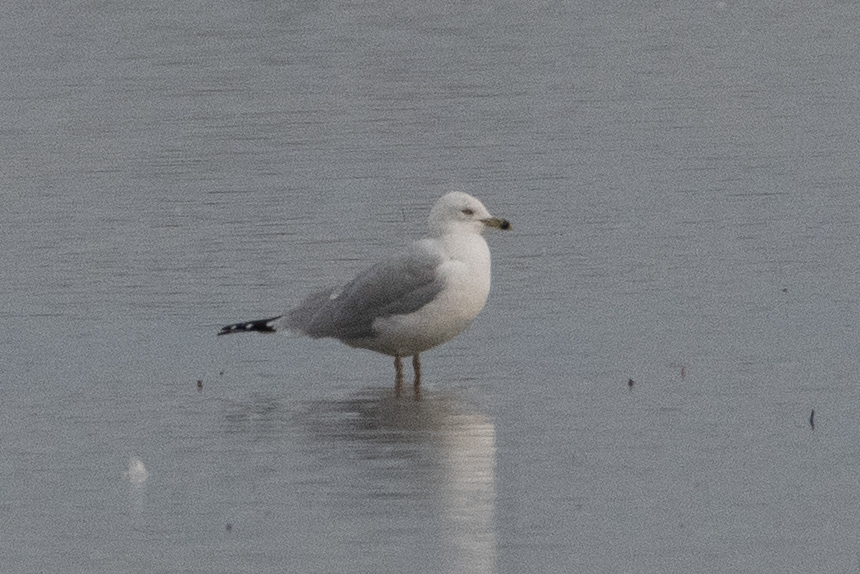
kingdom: Animalia
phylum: Chordata
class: Aves
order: Charadriiformes
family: Laridae
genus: Larus
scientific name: Larus delawarensis
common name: Ring-billed gull
